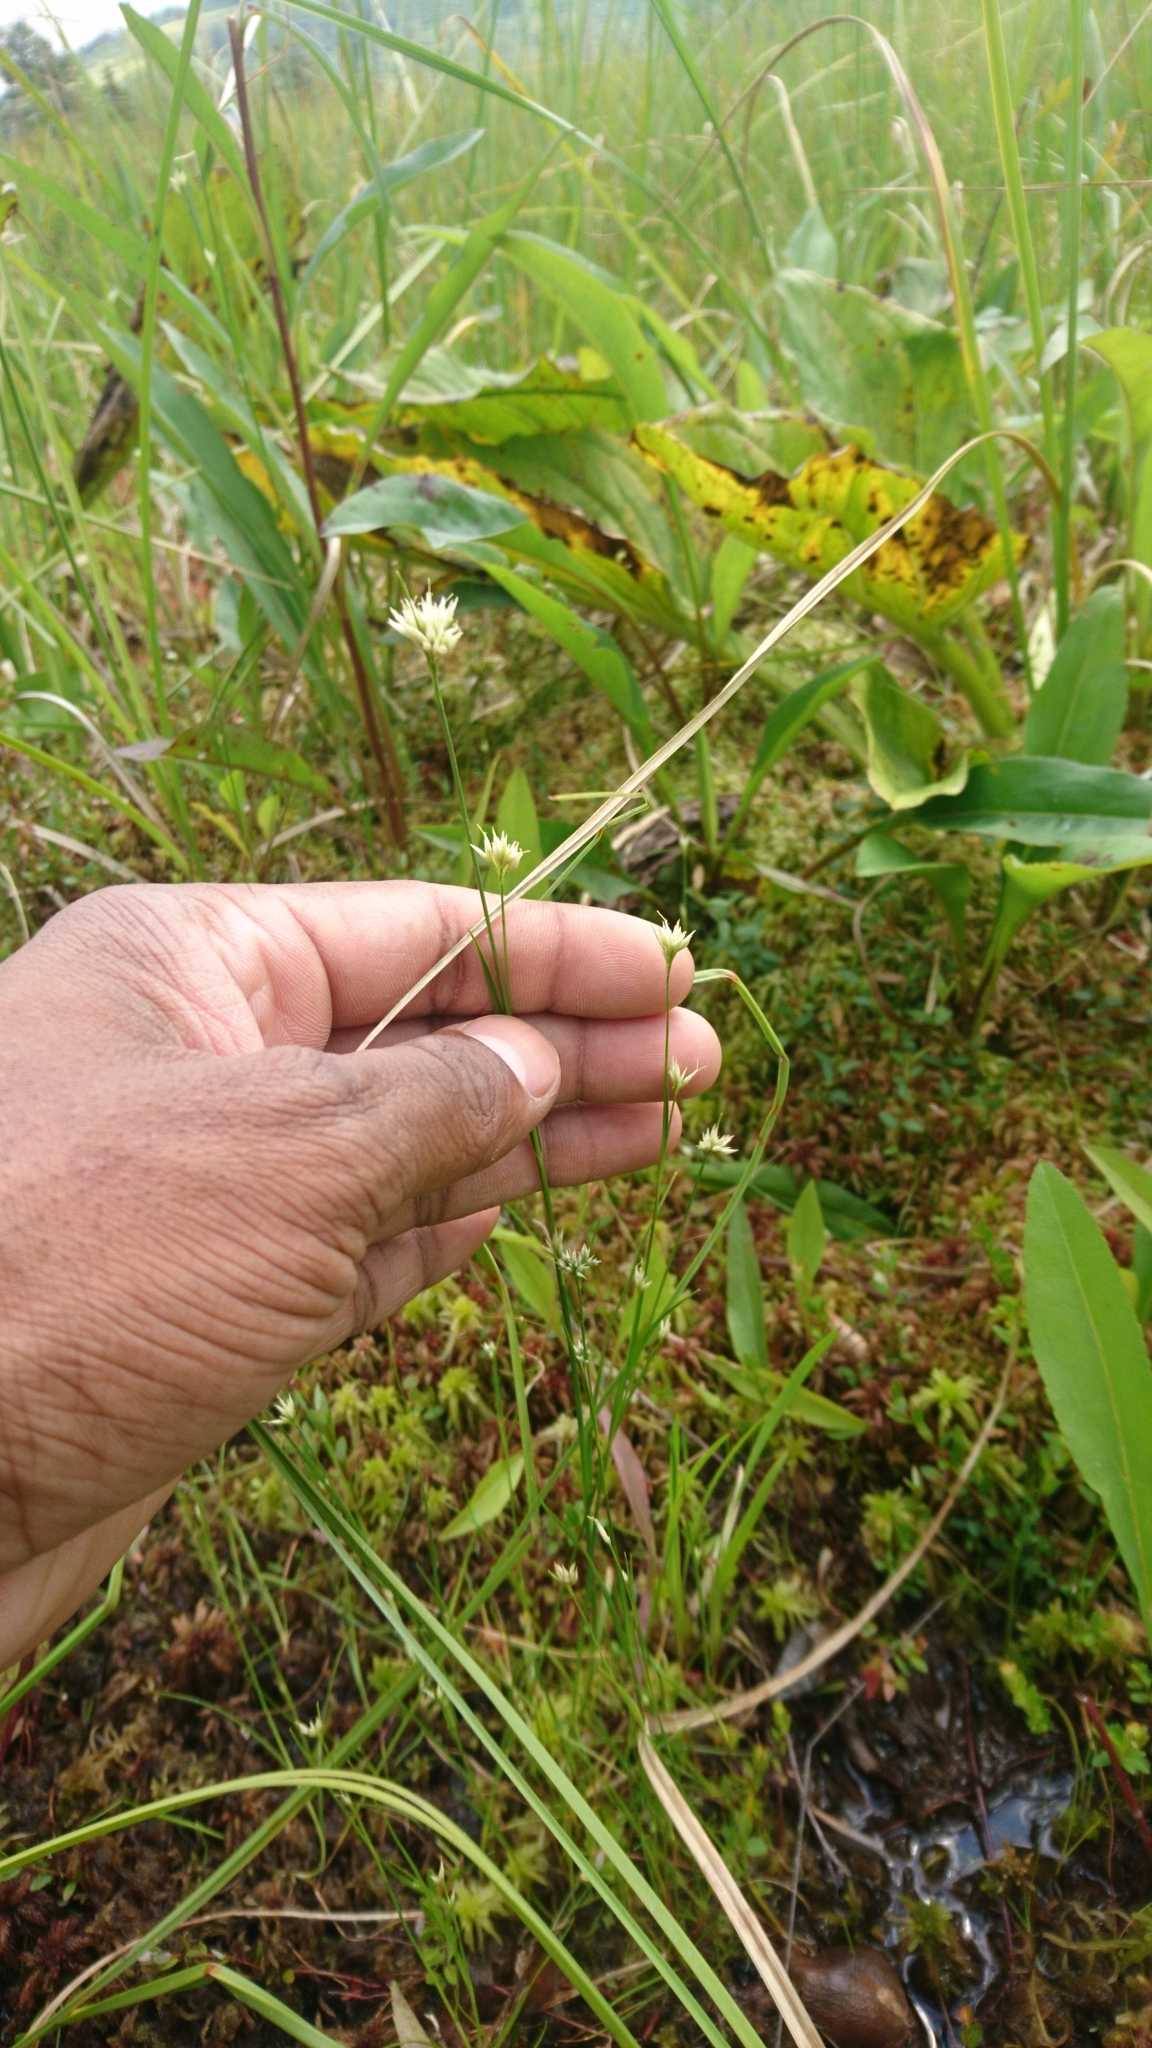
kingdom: Plantae
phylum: Tracheophyta
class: Liliopsida
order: Poales
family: Cyperaceae
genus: Rhynchospora
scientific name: Rhynchospora alba
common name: White beak-sedge
